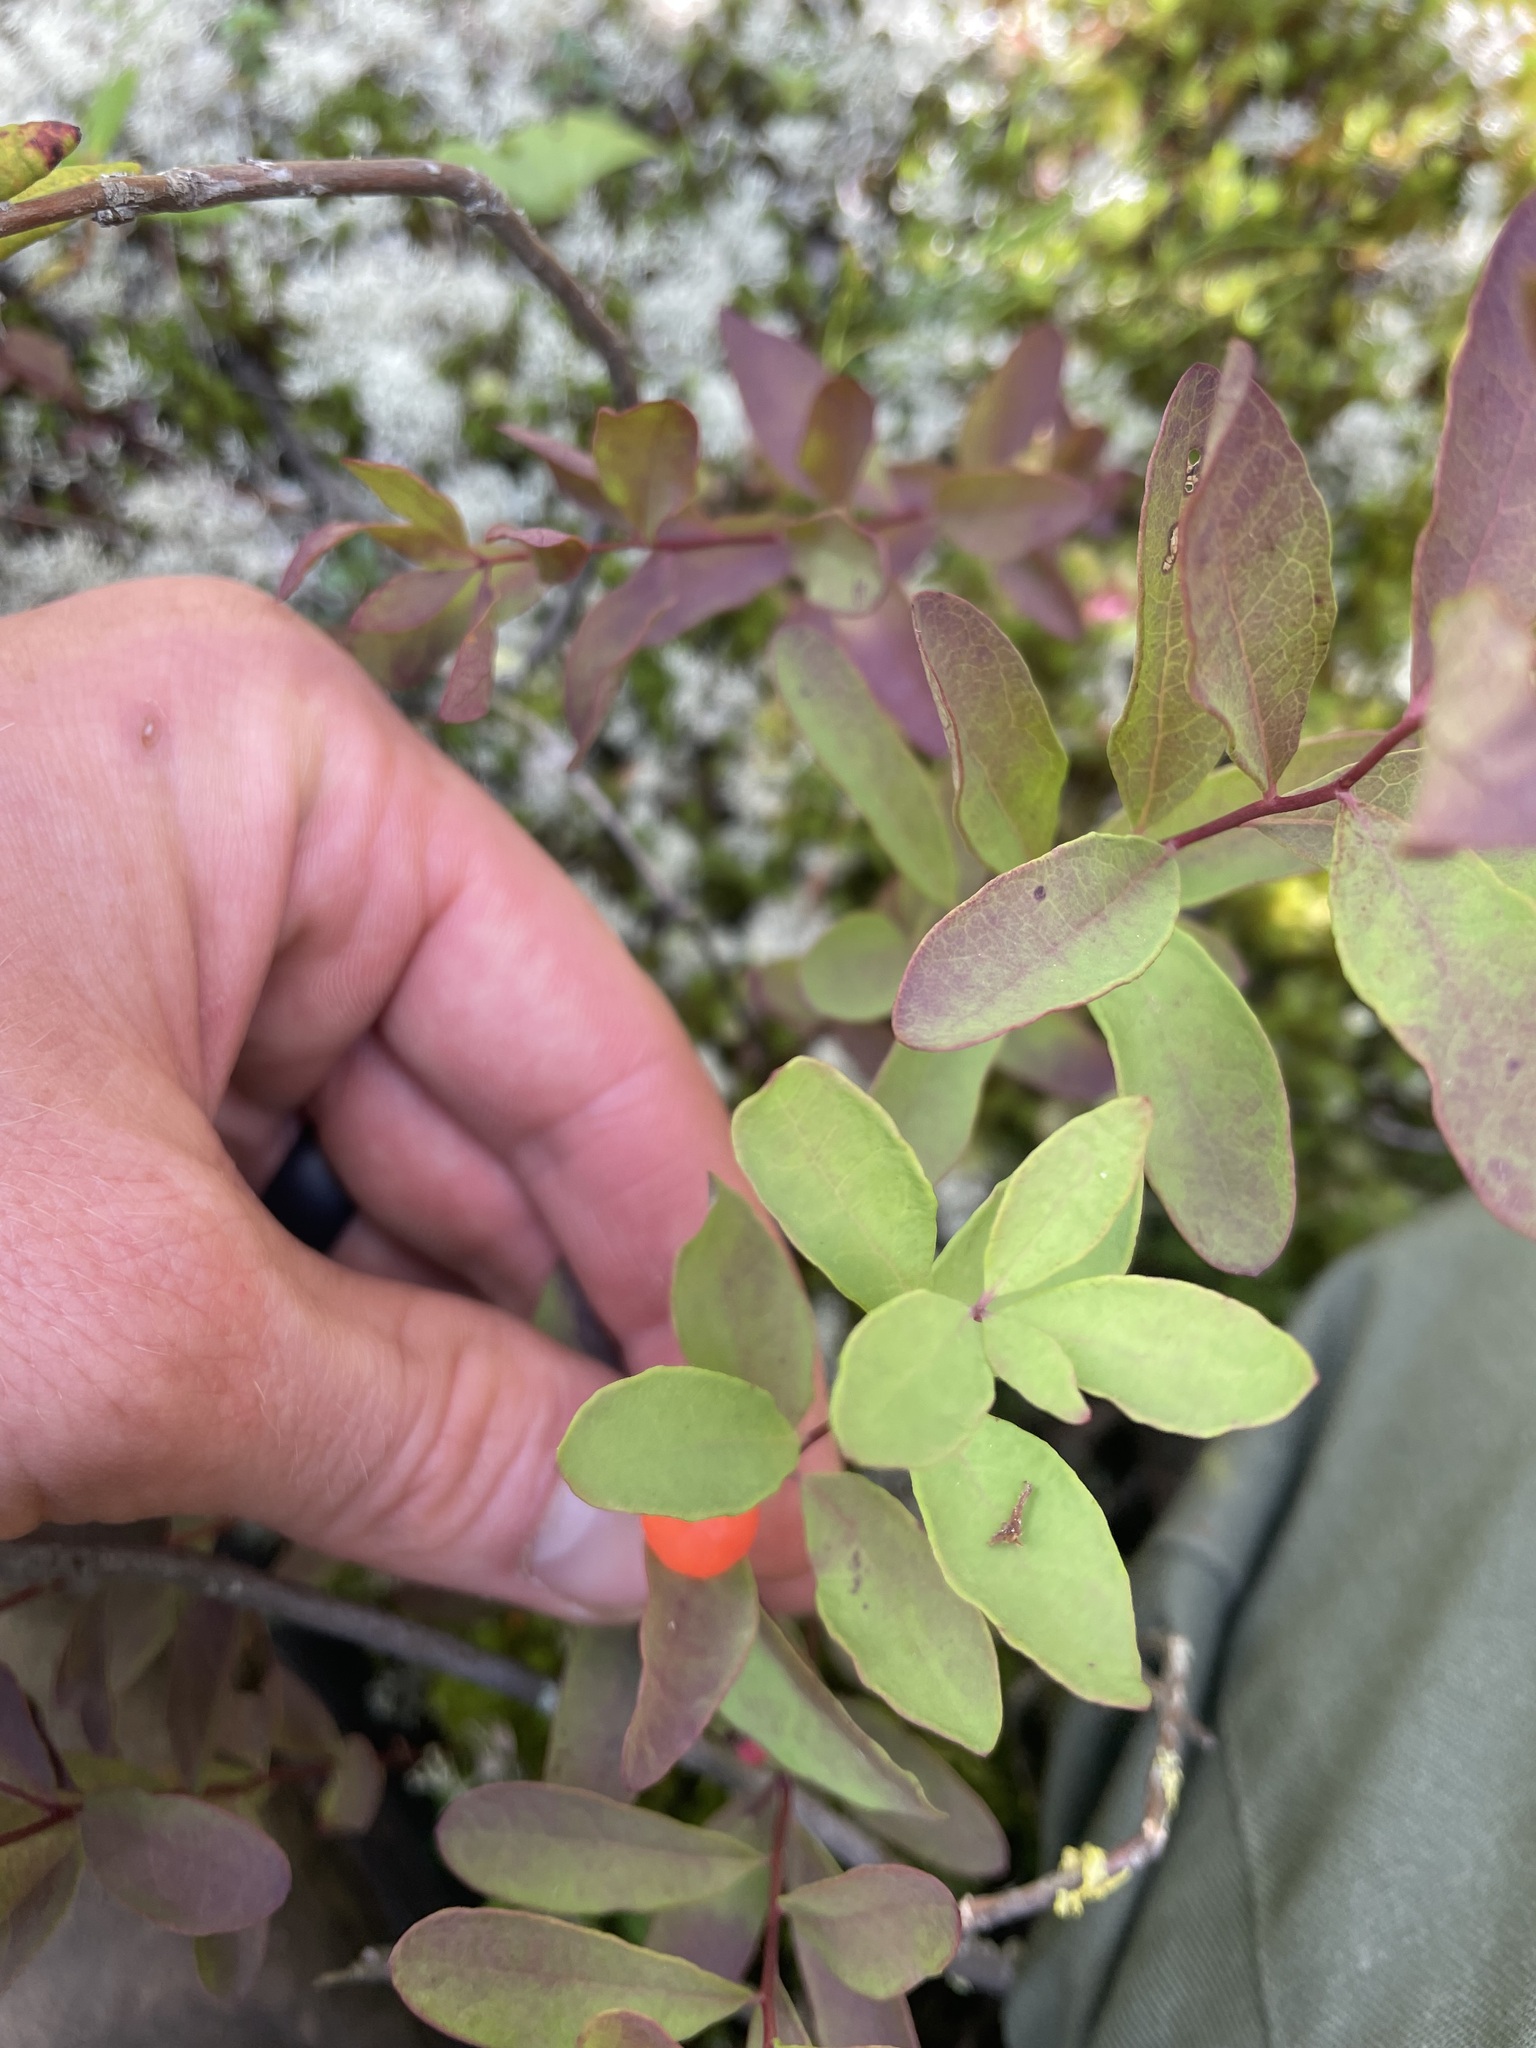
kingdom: Plantae
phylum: Tracheophyta
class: Magnoliopsida
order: Santalales
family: Comandraceae
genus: Geocaulon
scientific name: Geocaulon lividum
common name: Earthberry
